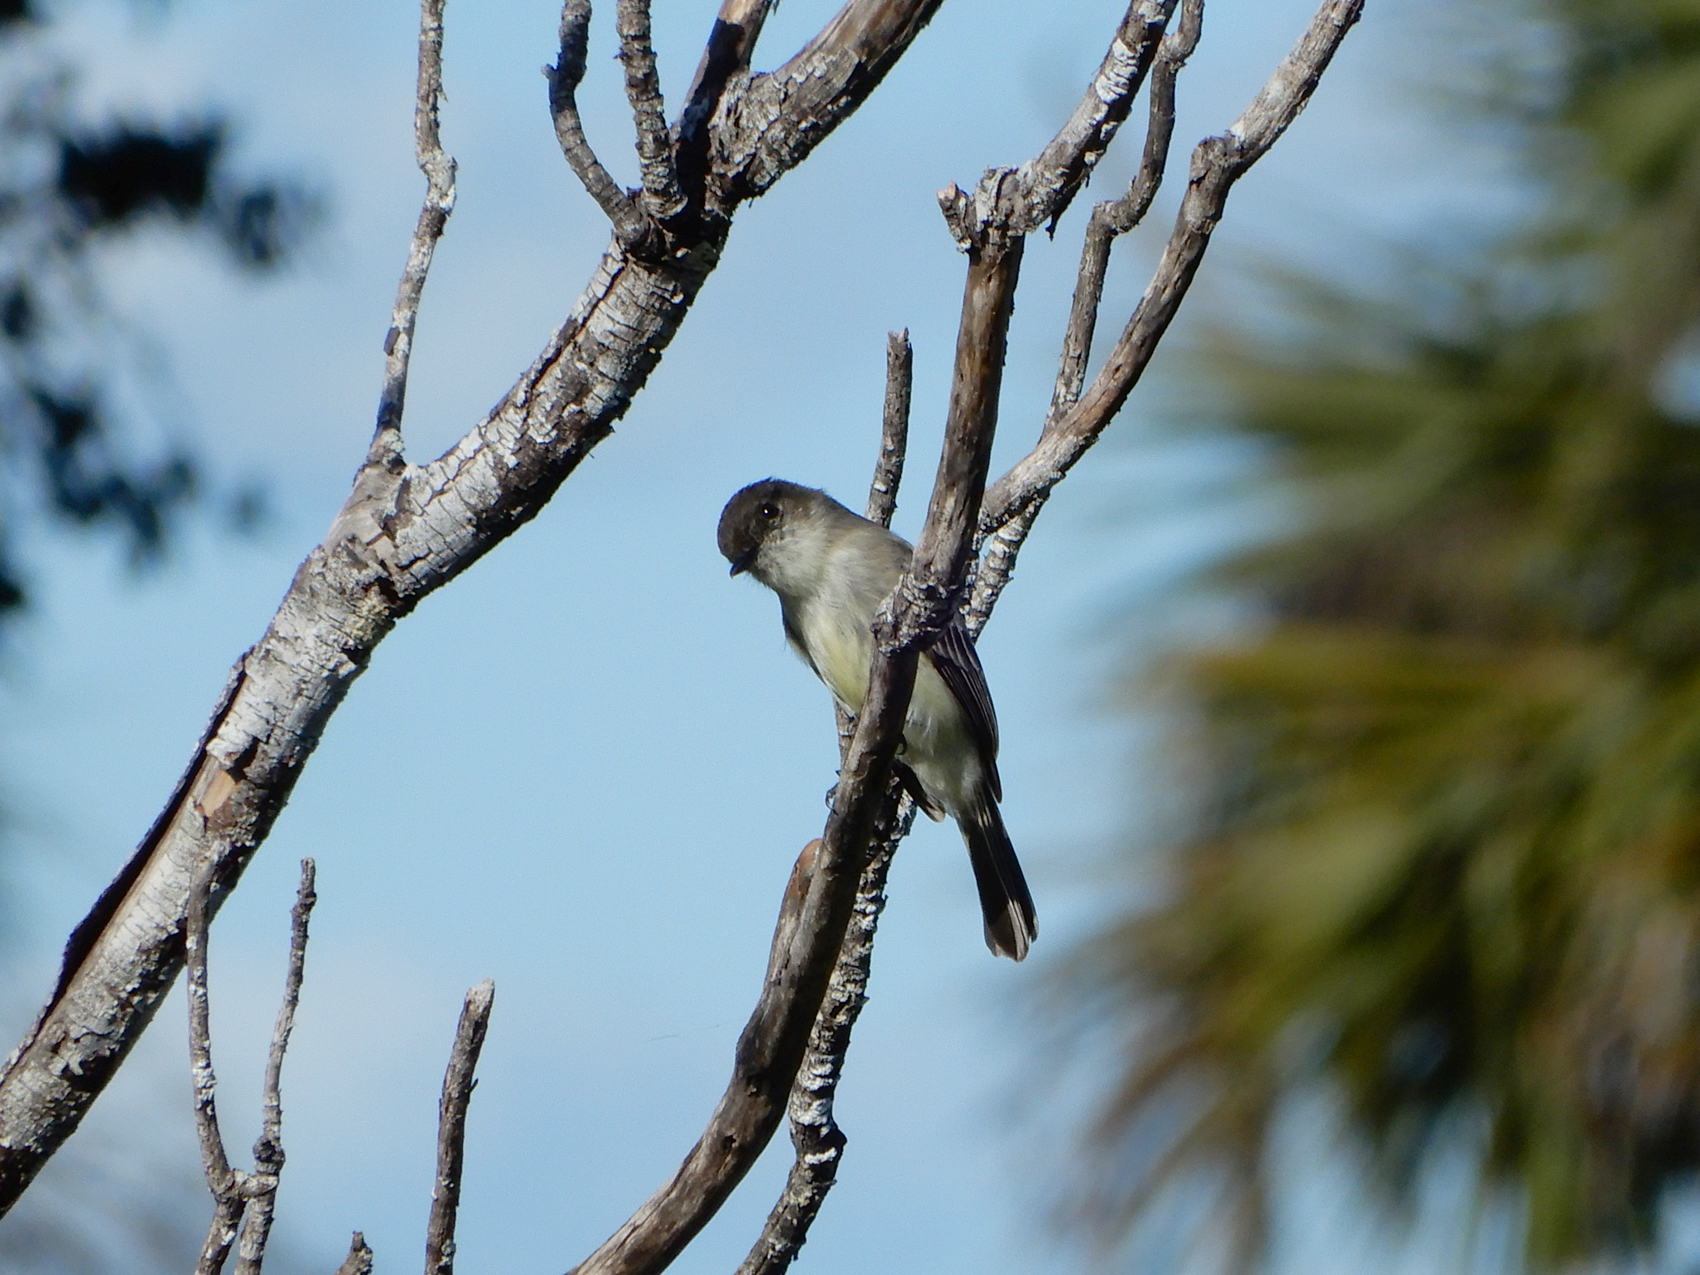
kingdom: Animalia
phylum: Chordata
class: Aves
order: Passeriformes
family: Tyrannidae
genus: Sayornis
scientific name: Sayornis phoebe
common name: Eastern phoebe
